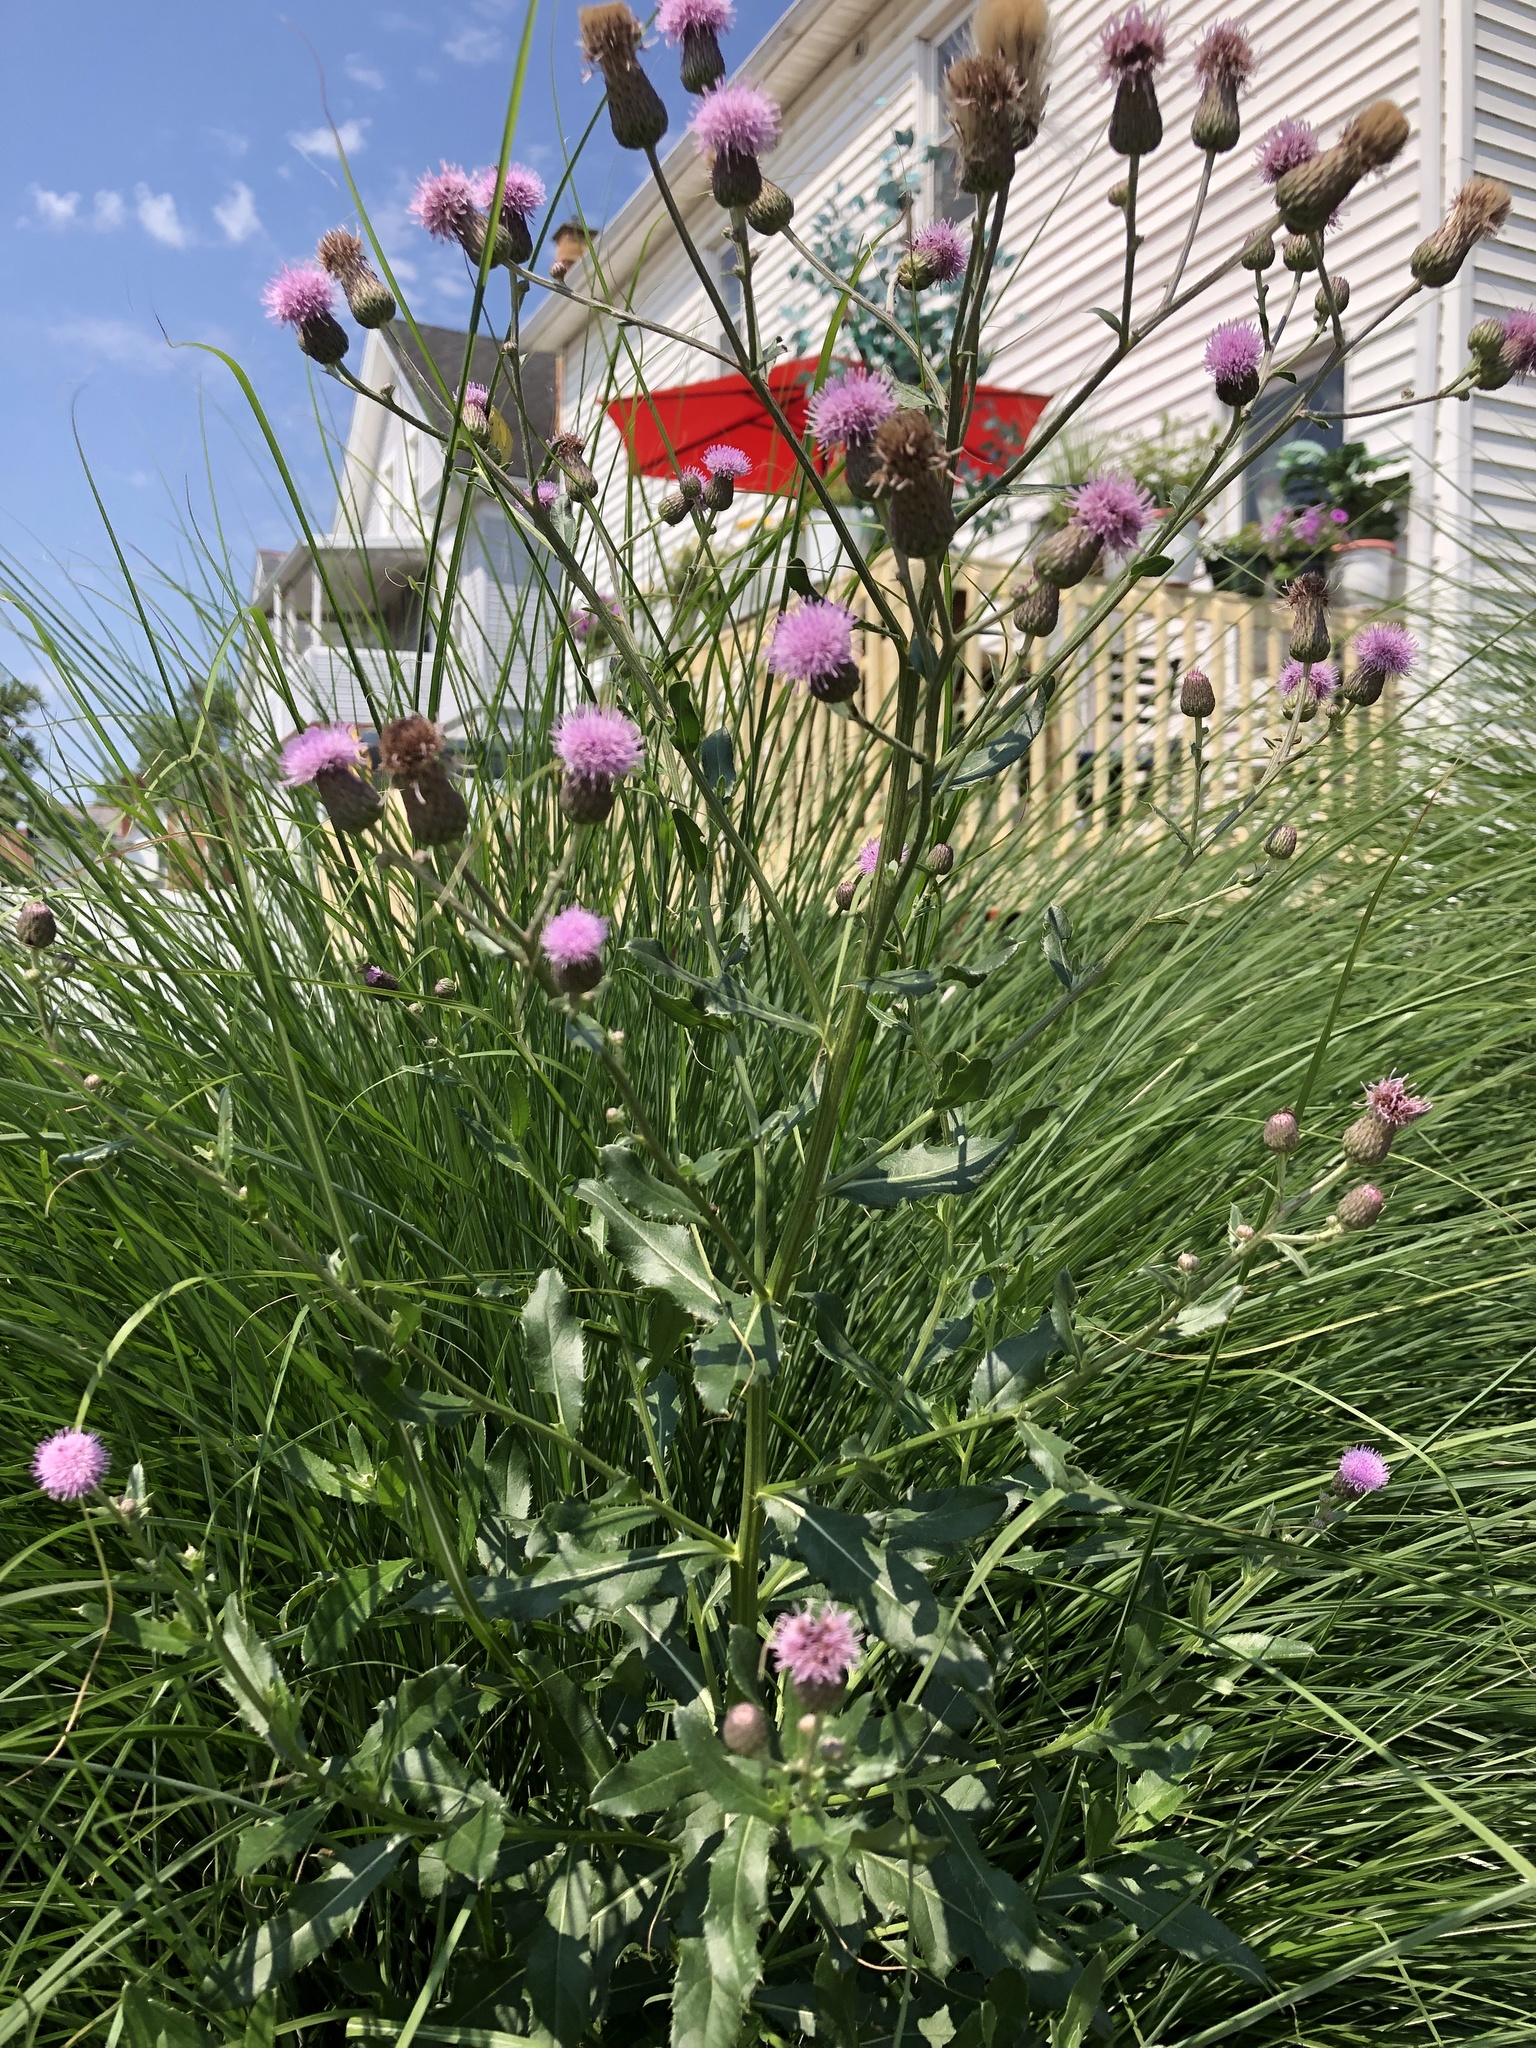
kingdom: Plantae
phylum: Tracheophyta
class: Magnoliopsida
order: Asterales
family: Asteraceae
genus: Cirsium
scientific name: Cirsium arvense
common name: Creeping thistle
